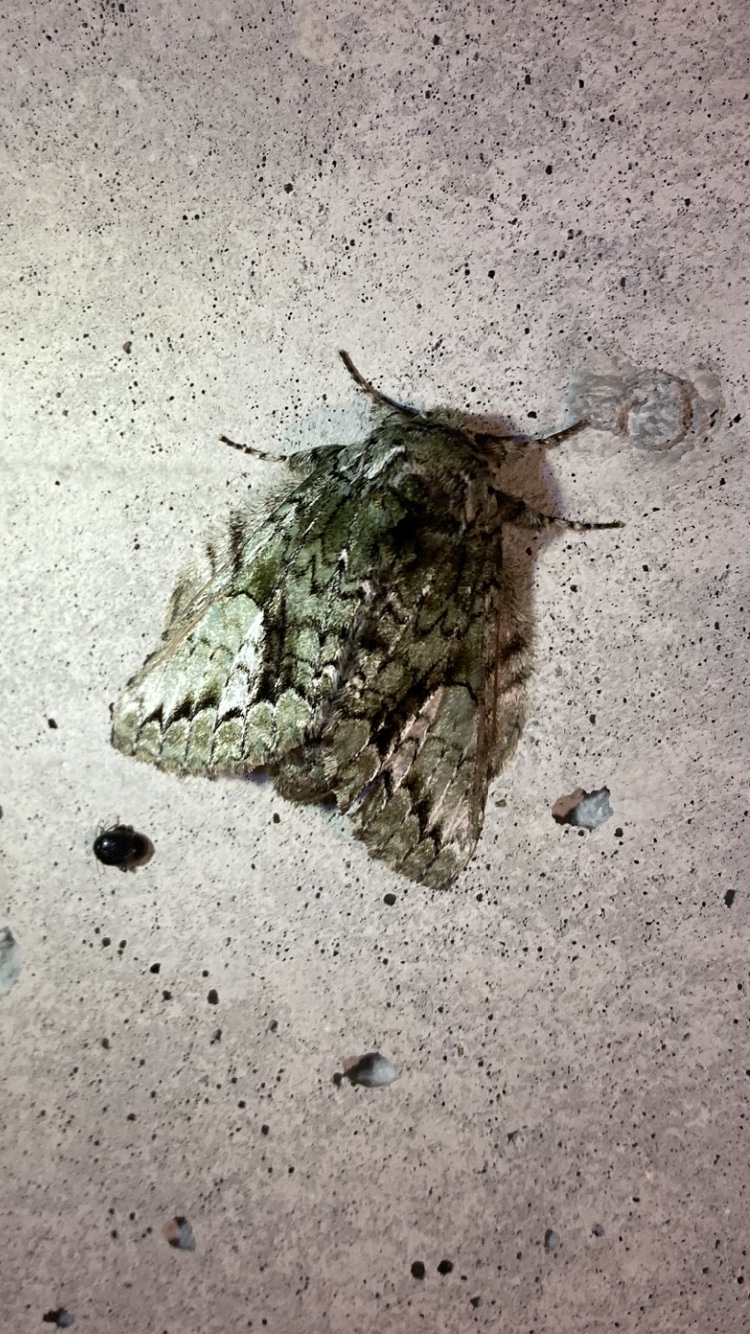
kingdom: Animalia
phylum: Arthropoda
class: Insecta
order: Lepidoptera
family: Notodontidae
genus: Heterocampa
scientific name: Heterocampa
